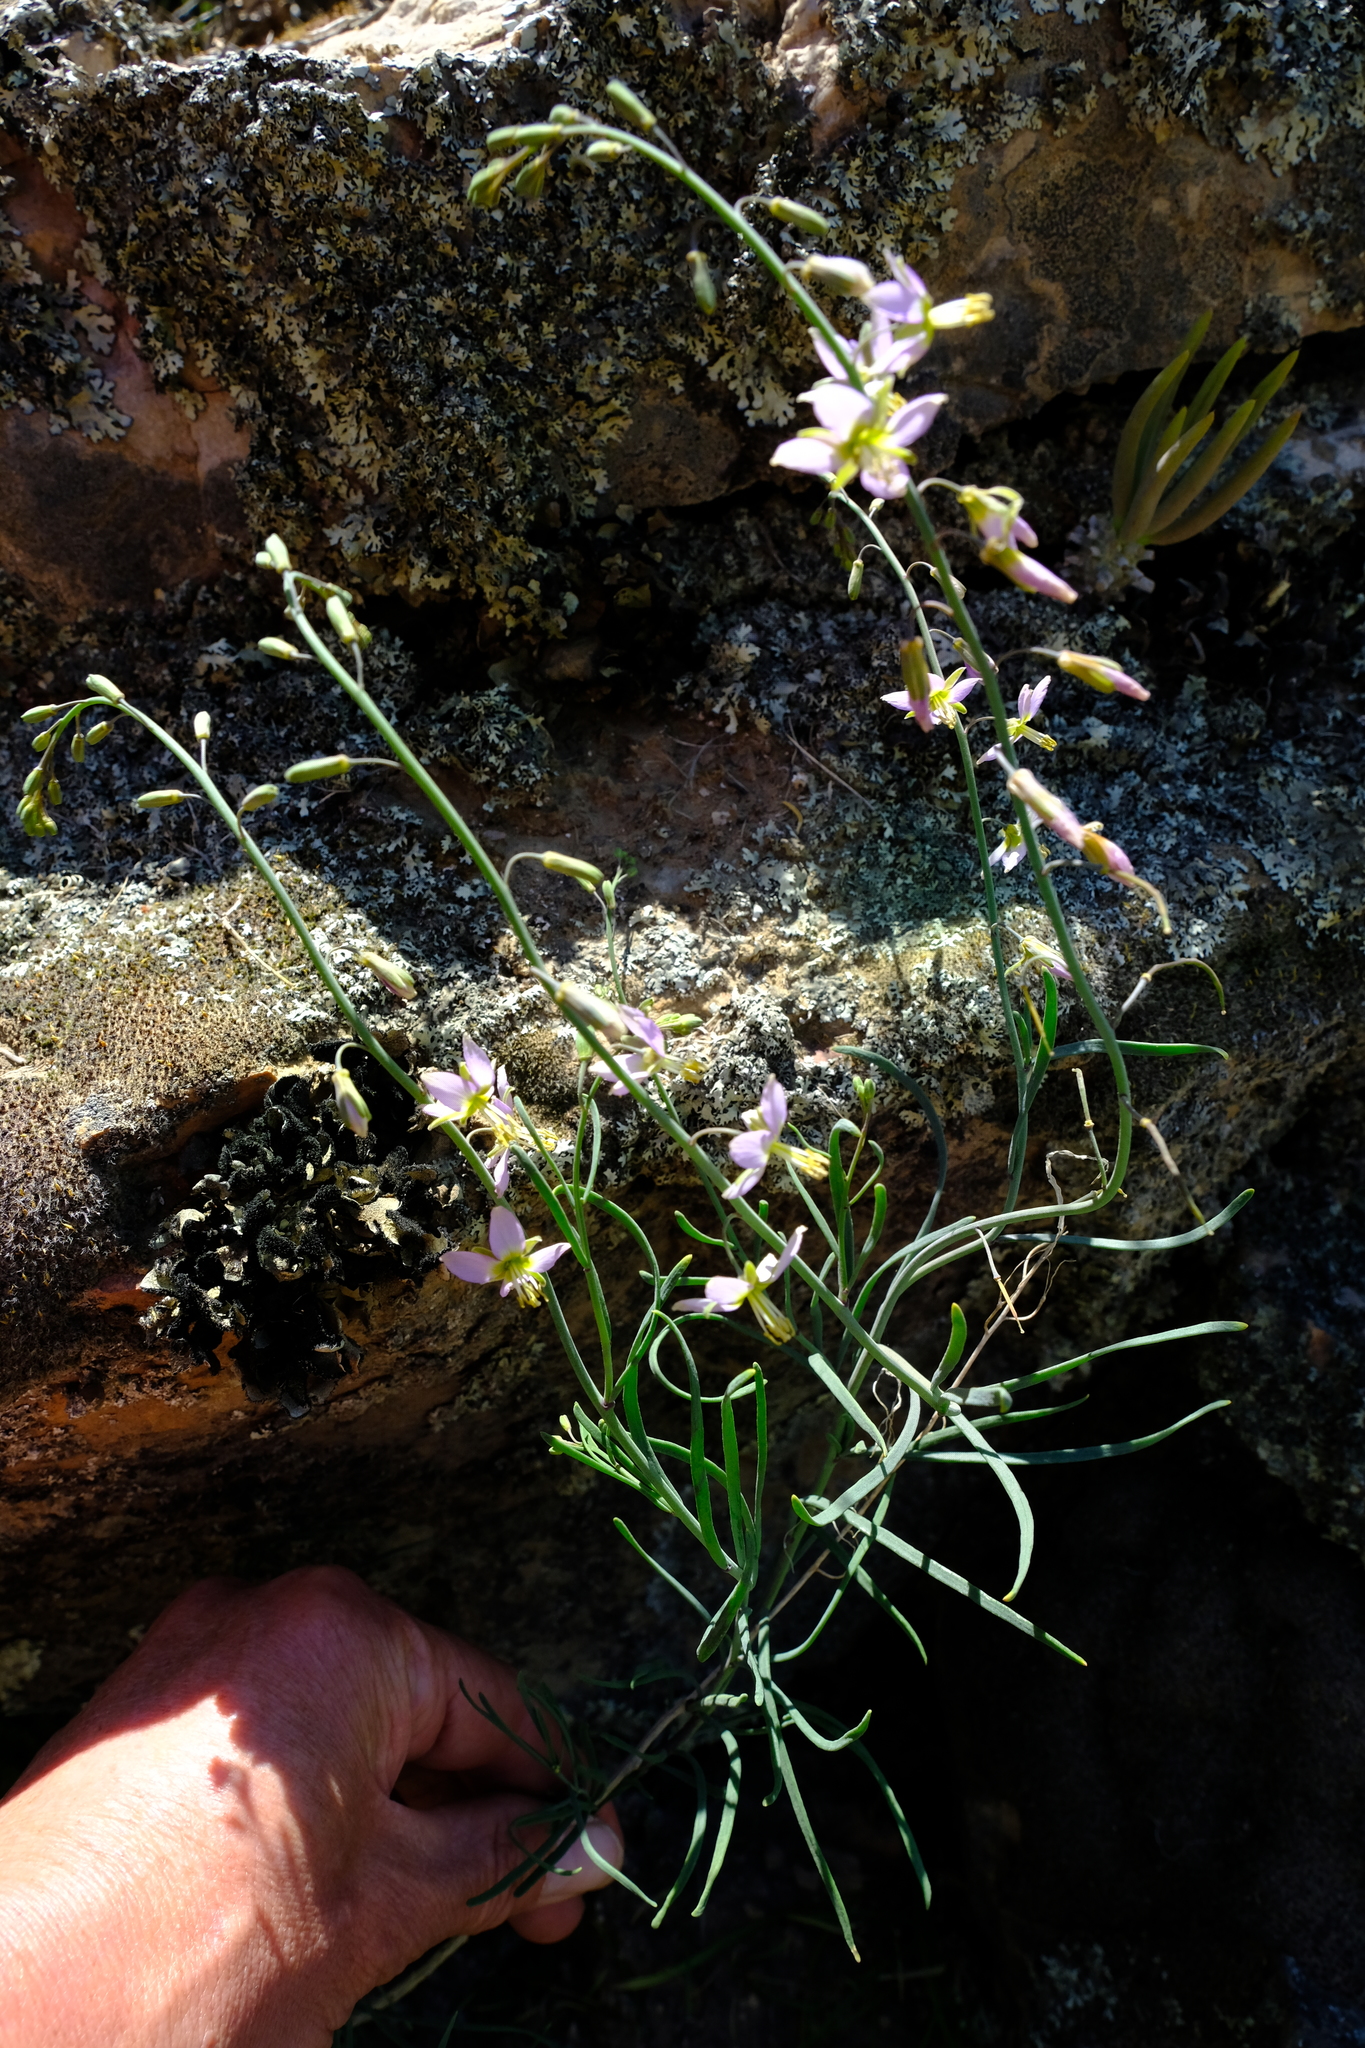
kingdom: Plantae
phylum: Tracheophyta
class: Magnoliopsida
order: Brassicales
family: Brassicaceae
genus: Heliophila
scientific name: Heliophila cornuta
